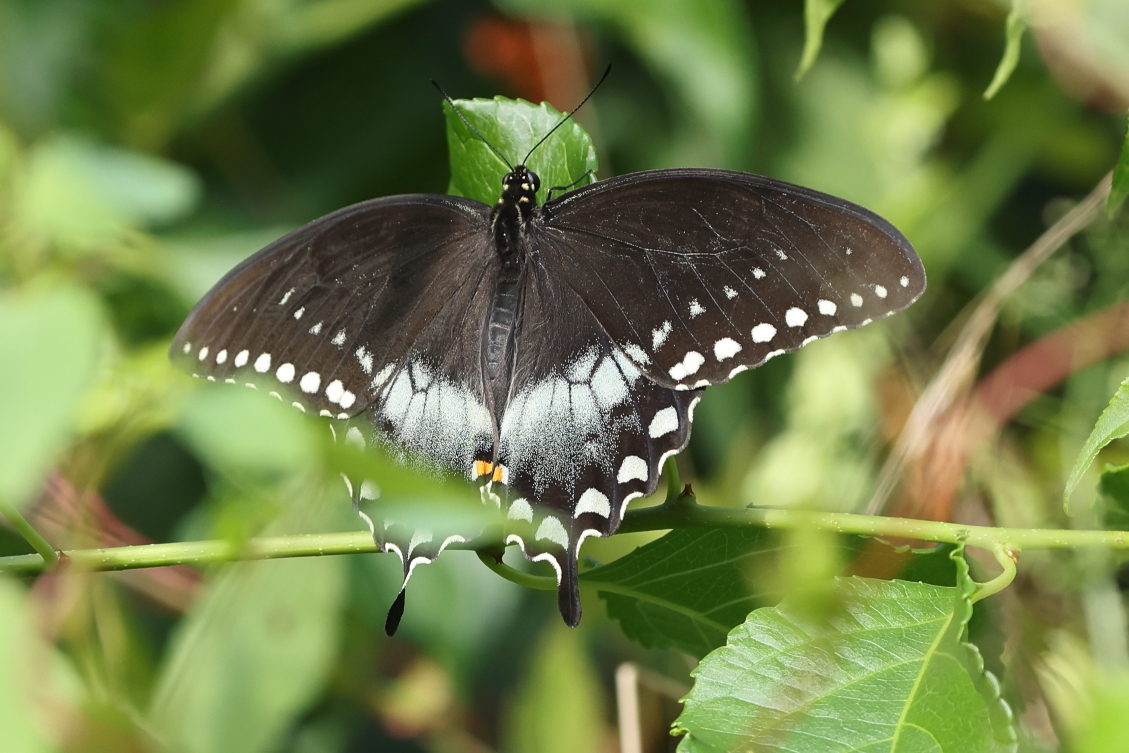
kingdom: Animalia
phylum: Arthropoda
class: Insecta
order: Lepidoptera
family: Papilionidae
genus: Papilio
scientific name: Papilio troilus
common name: Spicebush swallowtail
